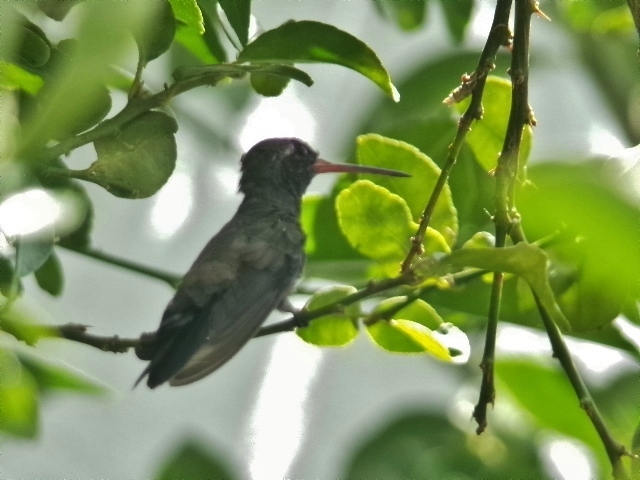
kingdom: Animalia
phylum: Chordata
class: Aves
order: Apodiformes
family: Trochilidae
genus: Cynanthus
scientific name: Cynanthus latirostris
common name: Broad-billed hummingbird
